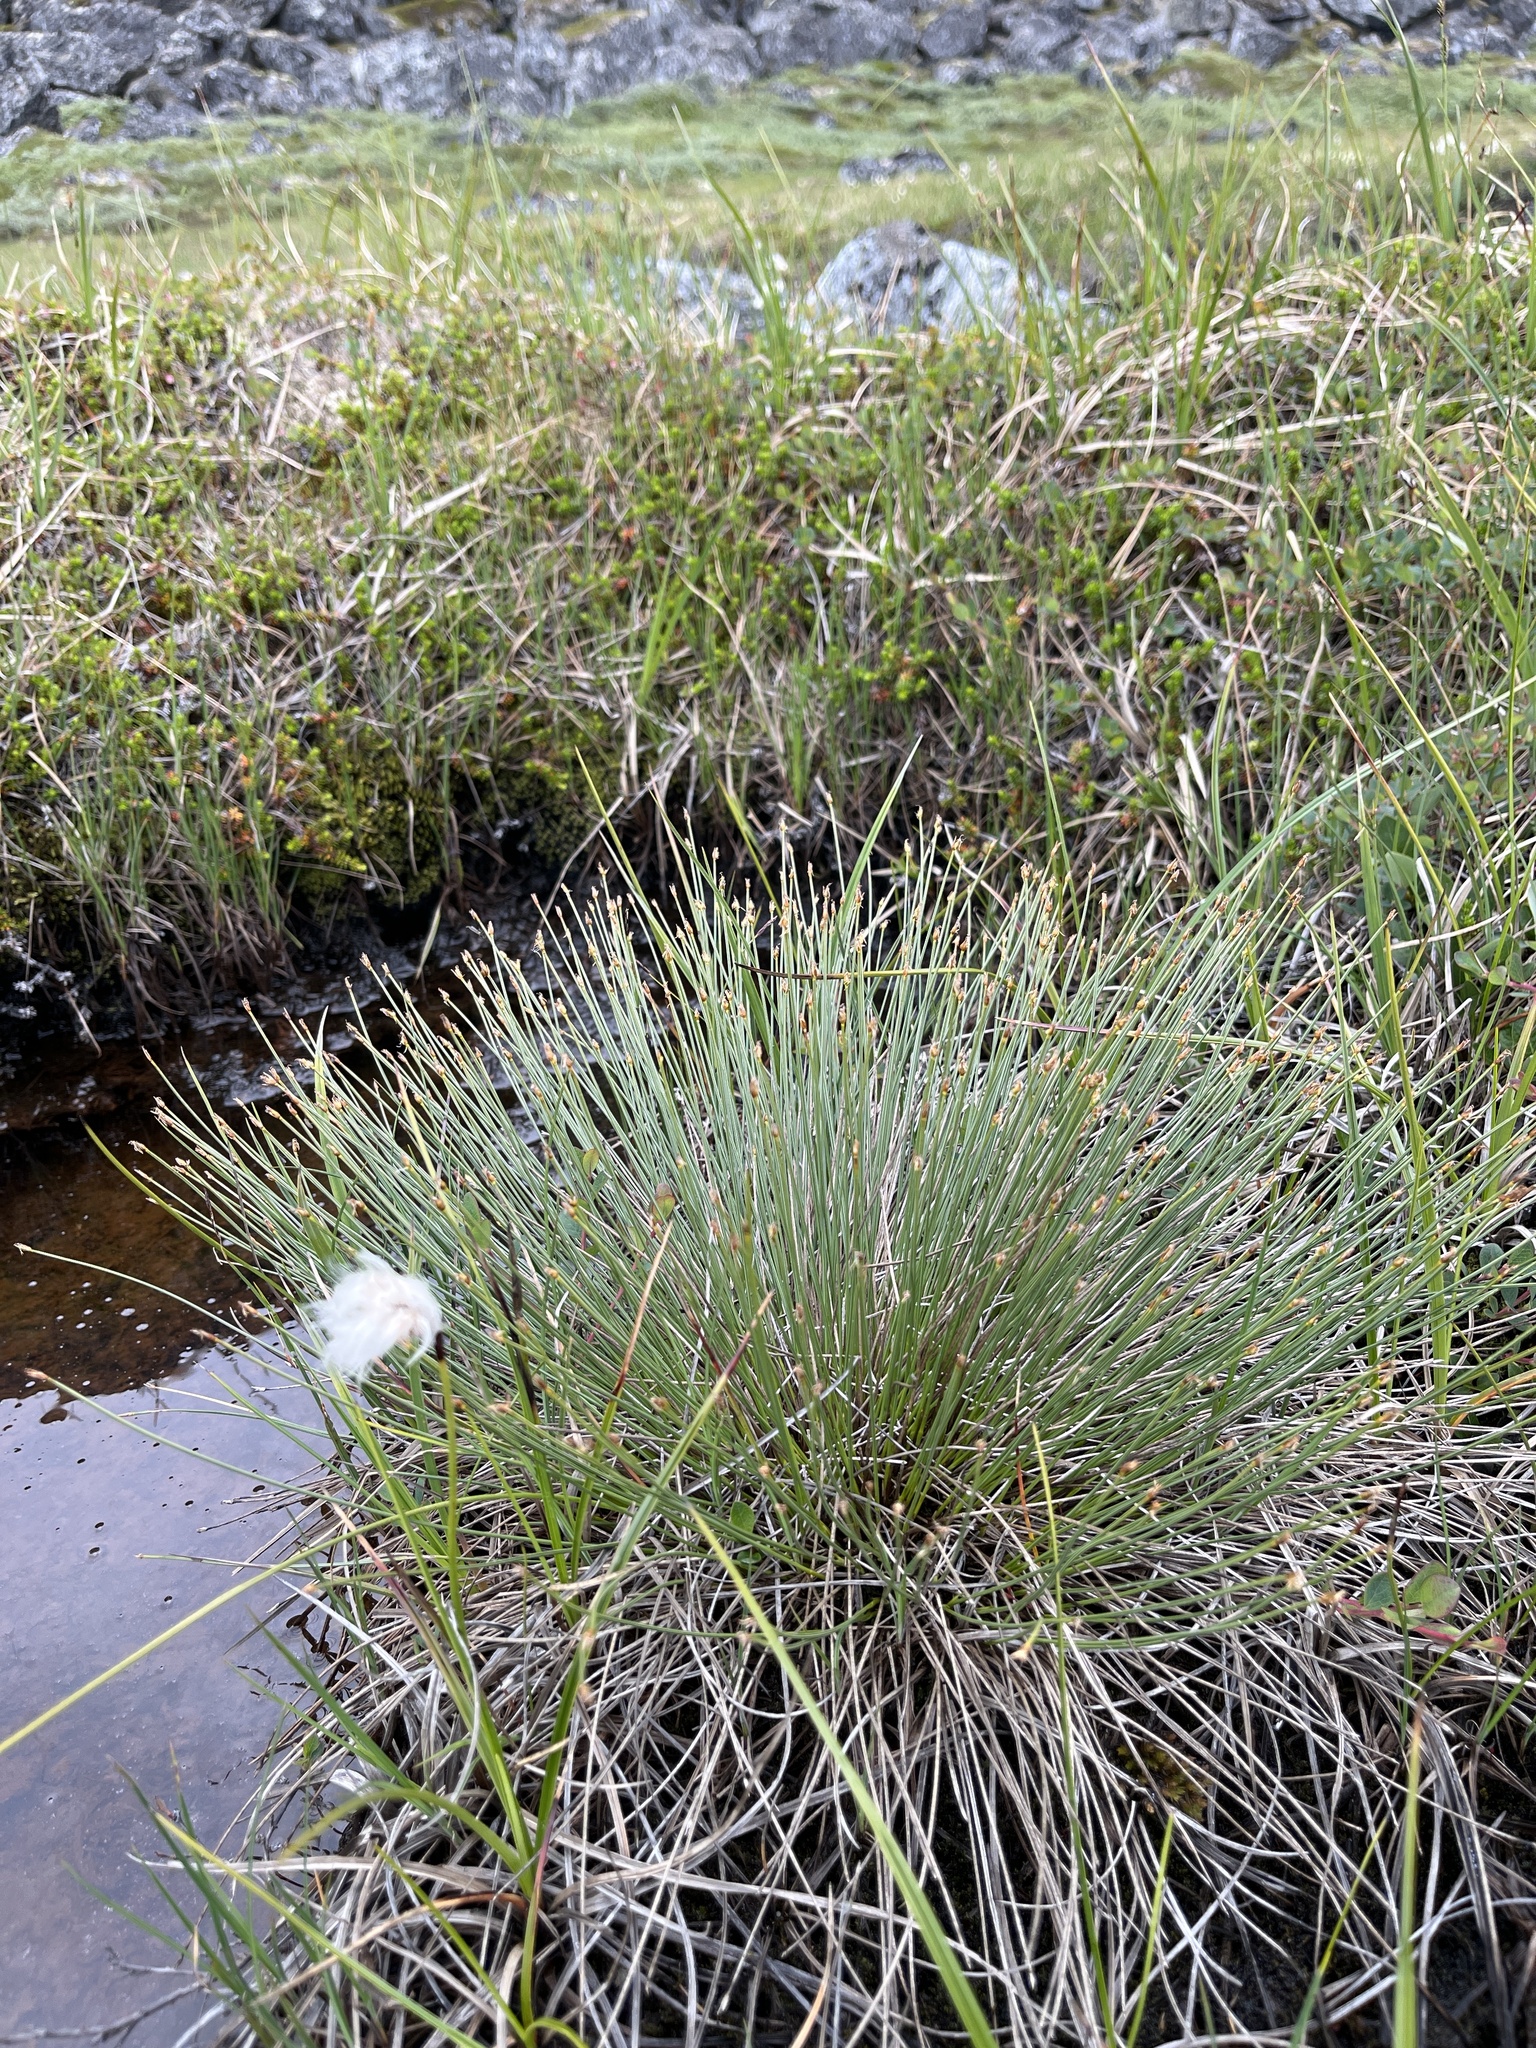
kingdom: Plantae
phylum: Tracheophyta
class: Liliopsida
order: Poales
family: Cyperaceae
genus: Trichophorum
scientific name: Trichophorum cespitosum
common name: Cespitose bulrush
